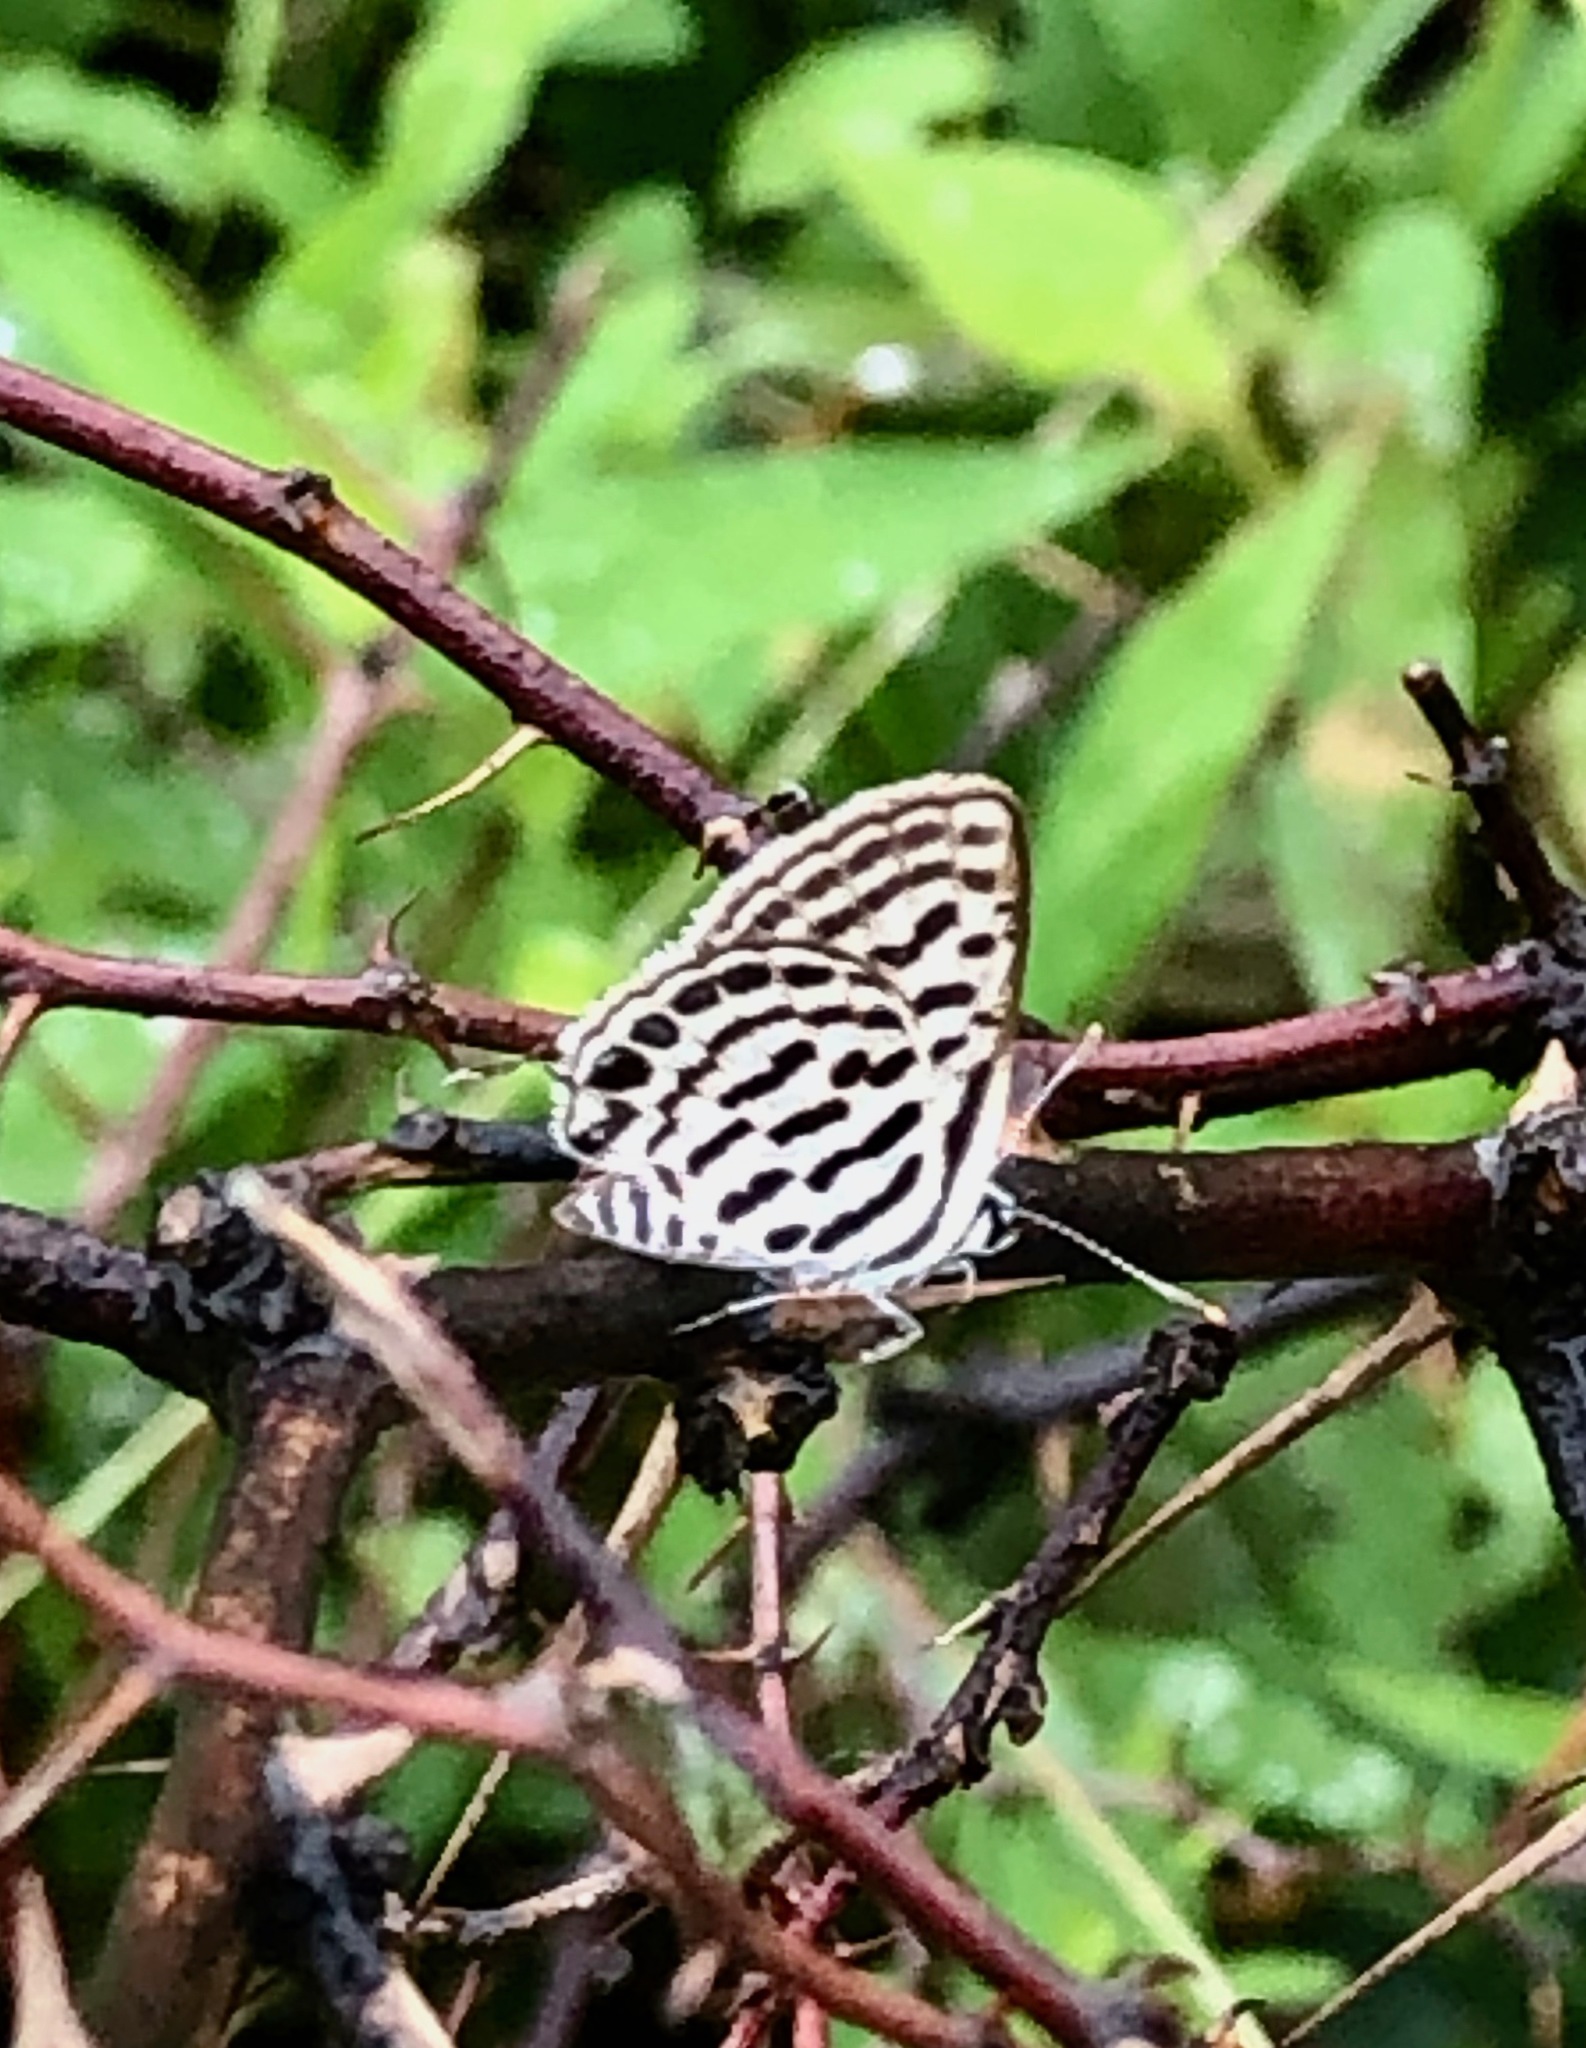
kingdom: Animalia
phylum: Arthropoda
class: Insecta
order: Lepidoptera
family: Lycaenidae
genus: Tarucus
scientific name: Tarucus nara
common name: Striped pierrot
